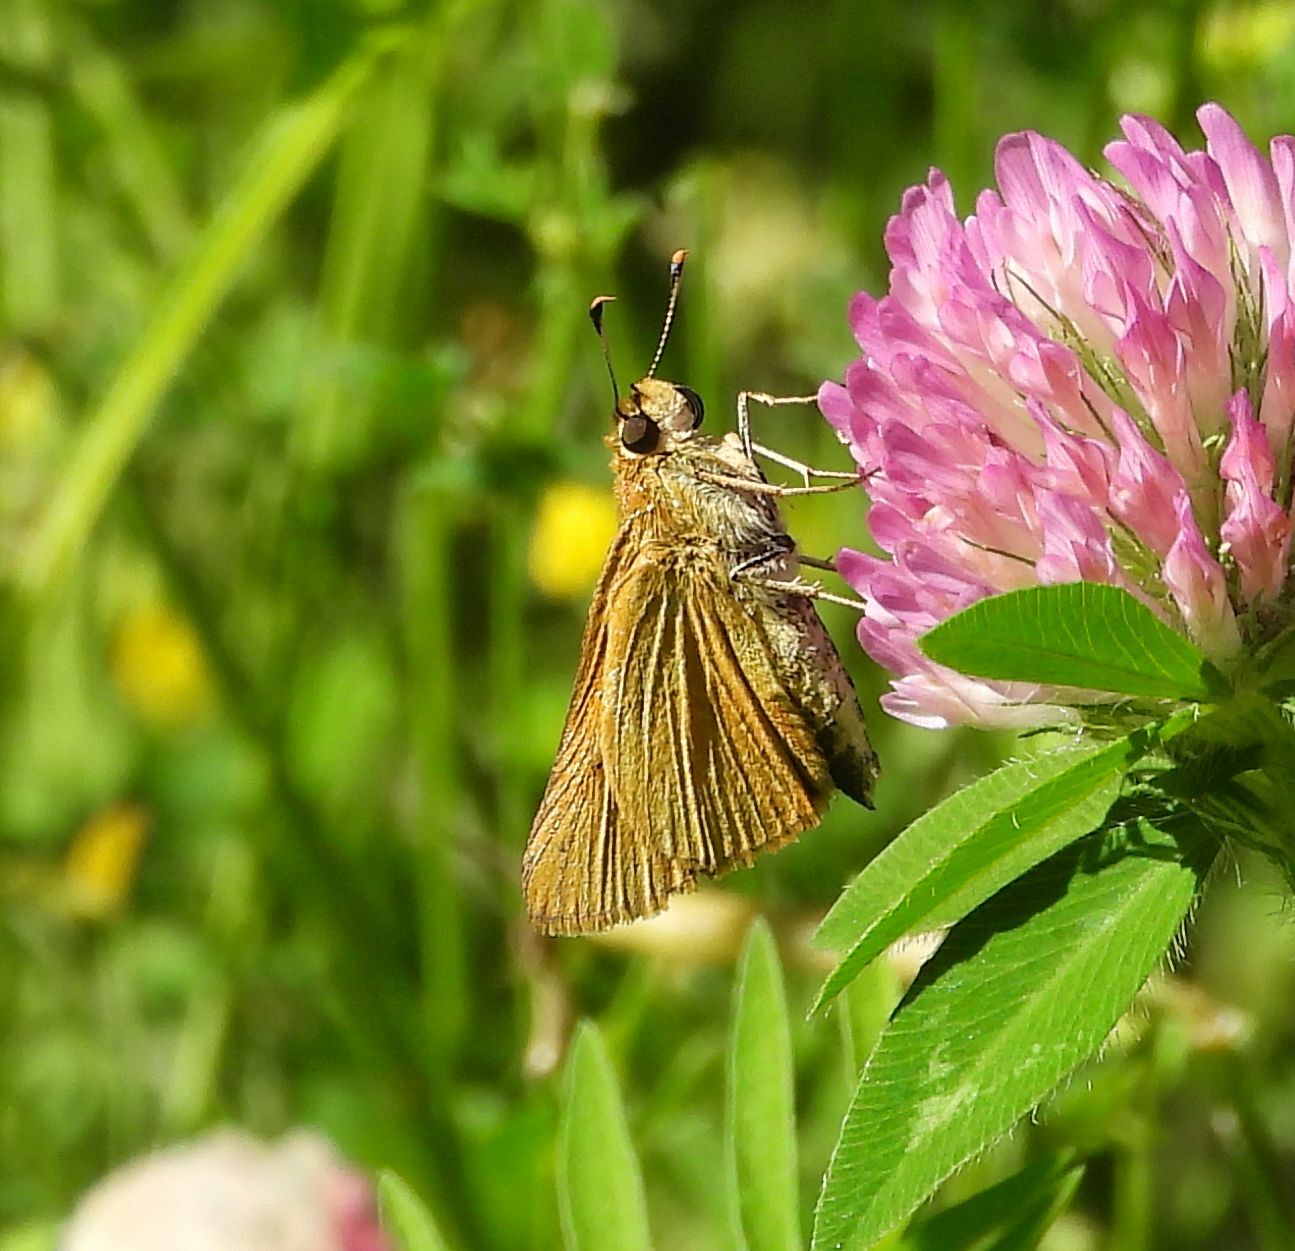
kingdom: Animalia
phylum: Arthropoda
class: Insecta
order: Lepidoptera
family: Hesperiidae
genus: Euphyes
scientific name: Euphyes dion
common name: Dion skipper
